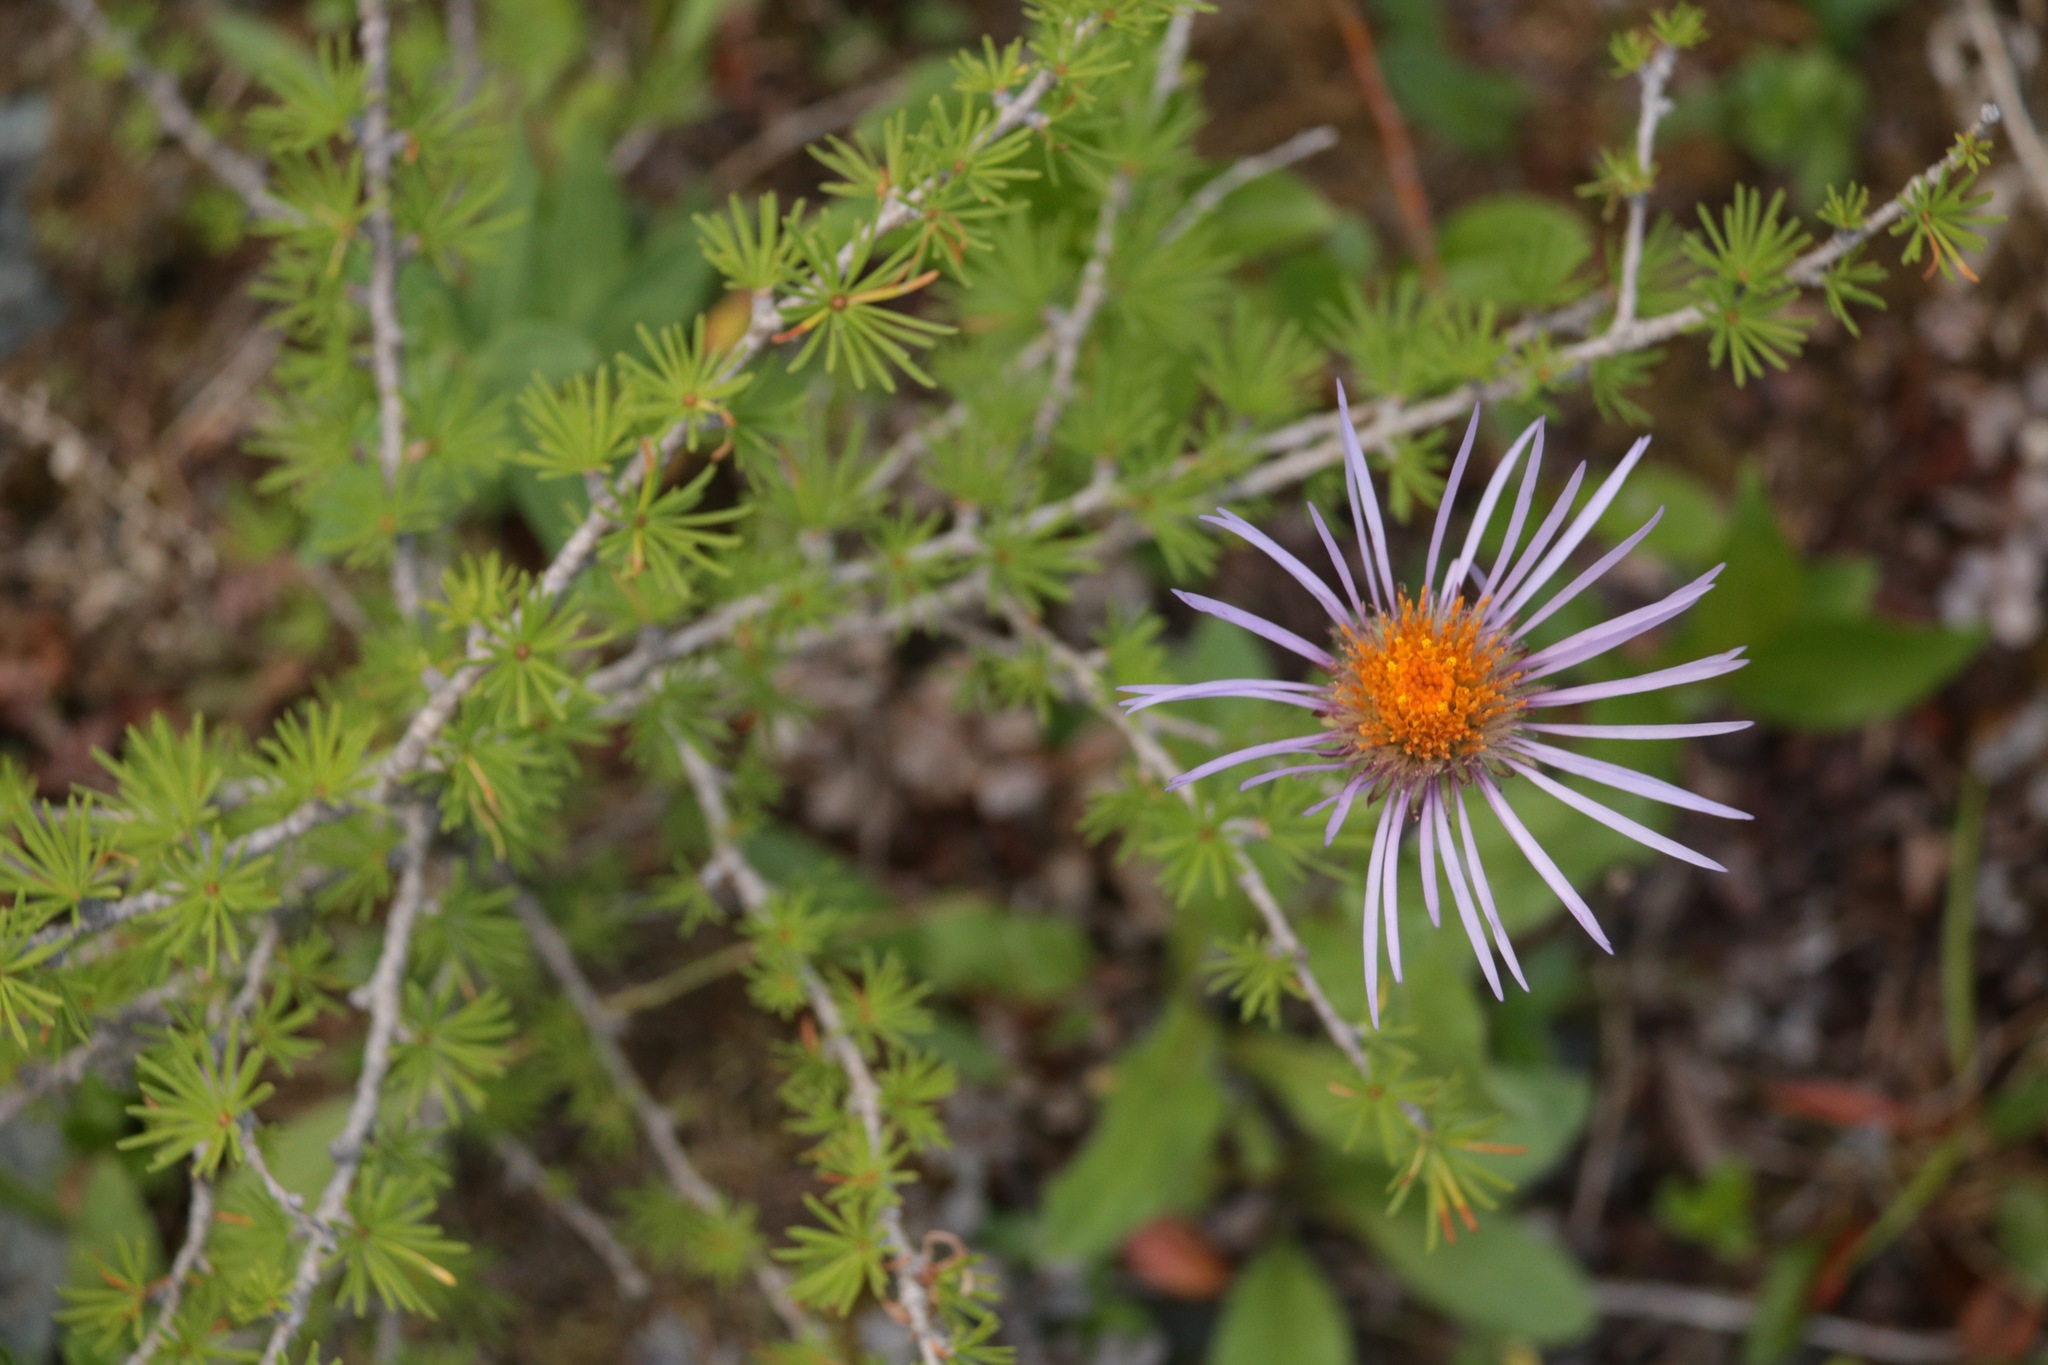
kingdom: Plantae
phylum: Tracheophyta
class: Magnoliopsida
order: Asterales
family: Asteraceae
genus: Tibetiodes
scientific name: Tibetiodes flaccida
